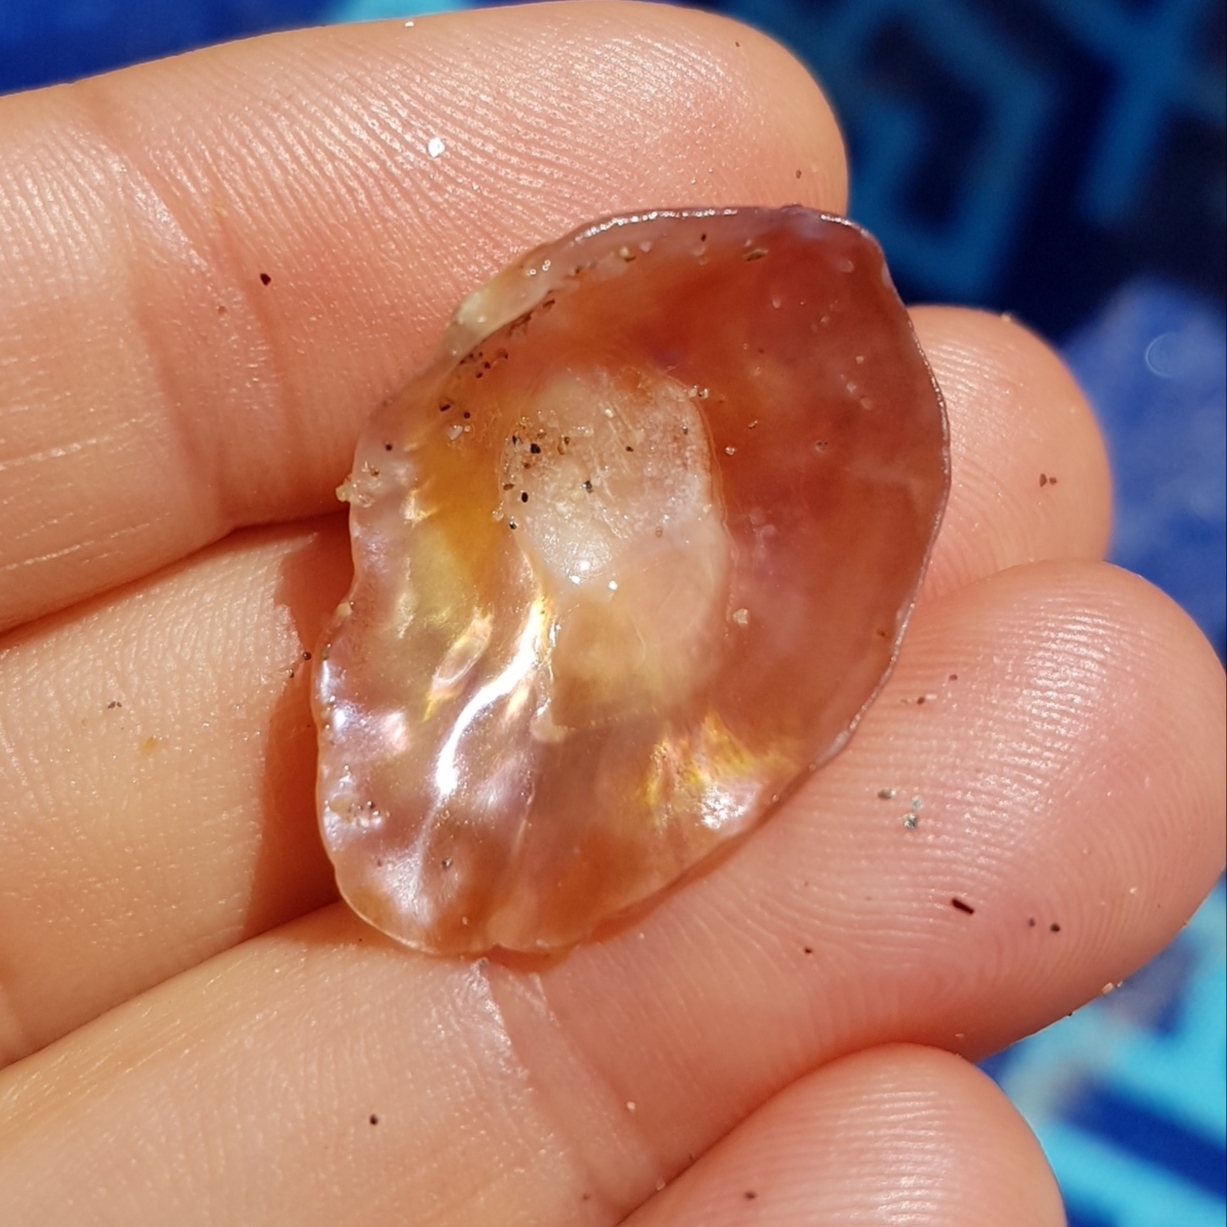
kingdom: Animalia
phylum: Mollusca
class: Bivalvia
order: Pectinida
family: Anomiidae
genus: Anomia
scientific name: Anomia ephippium
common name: Saddle oyster
